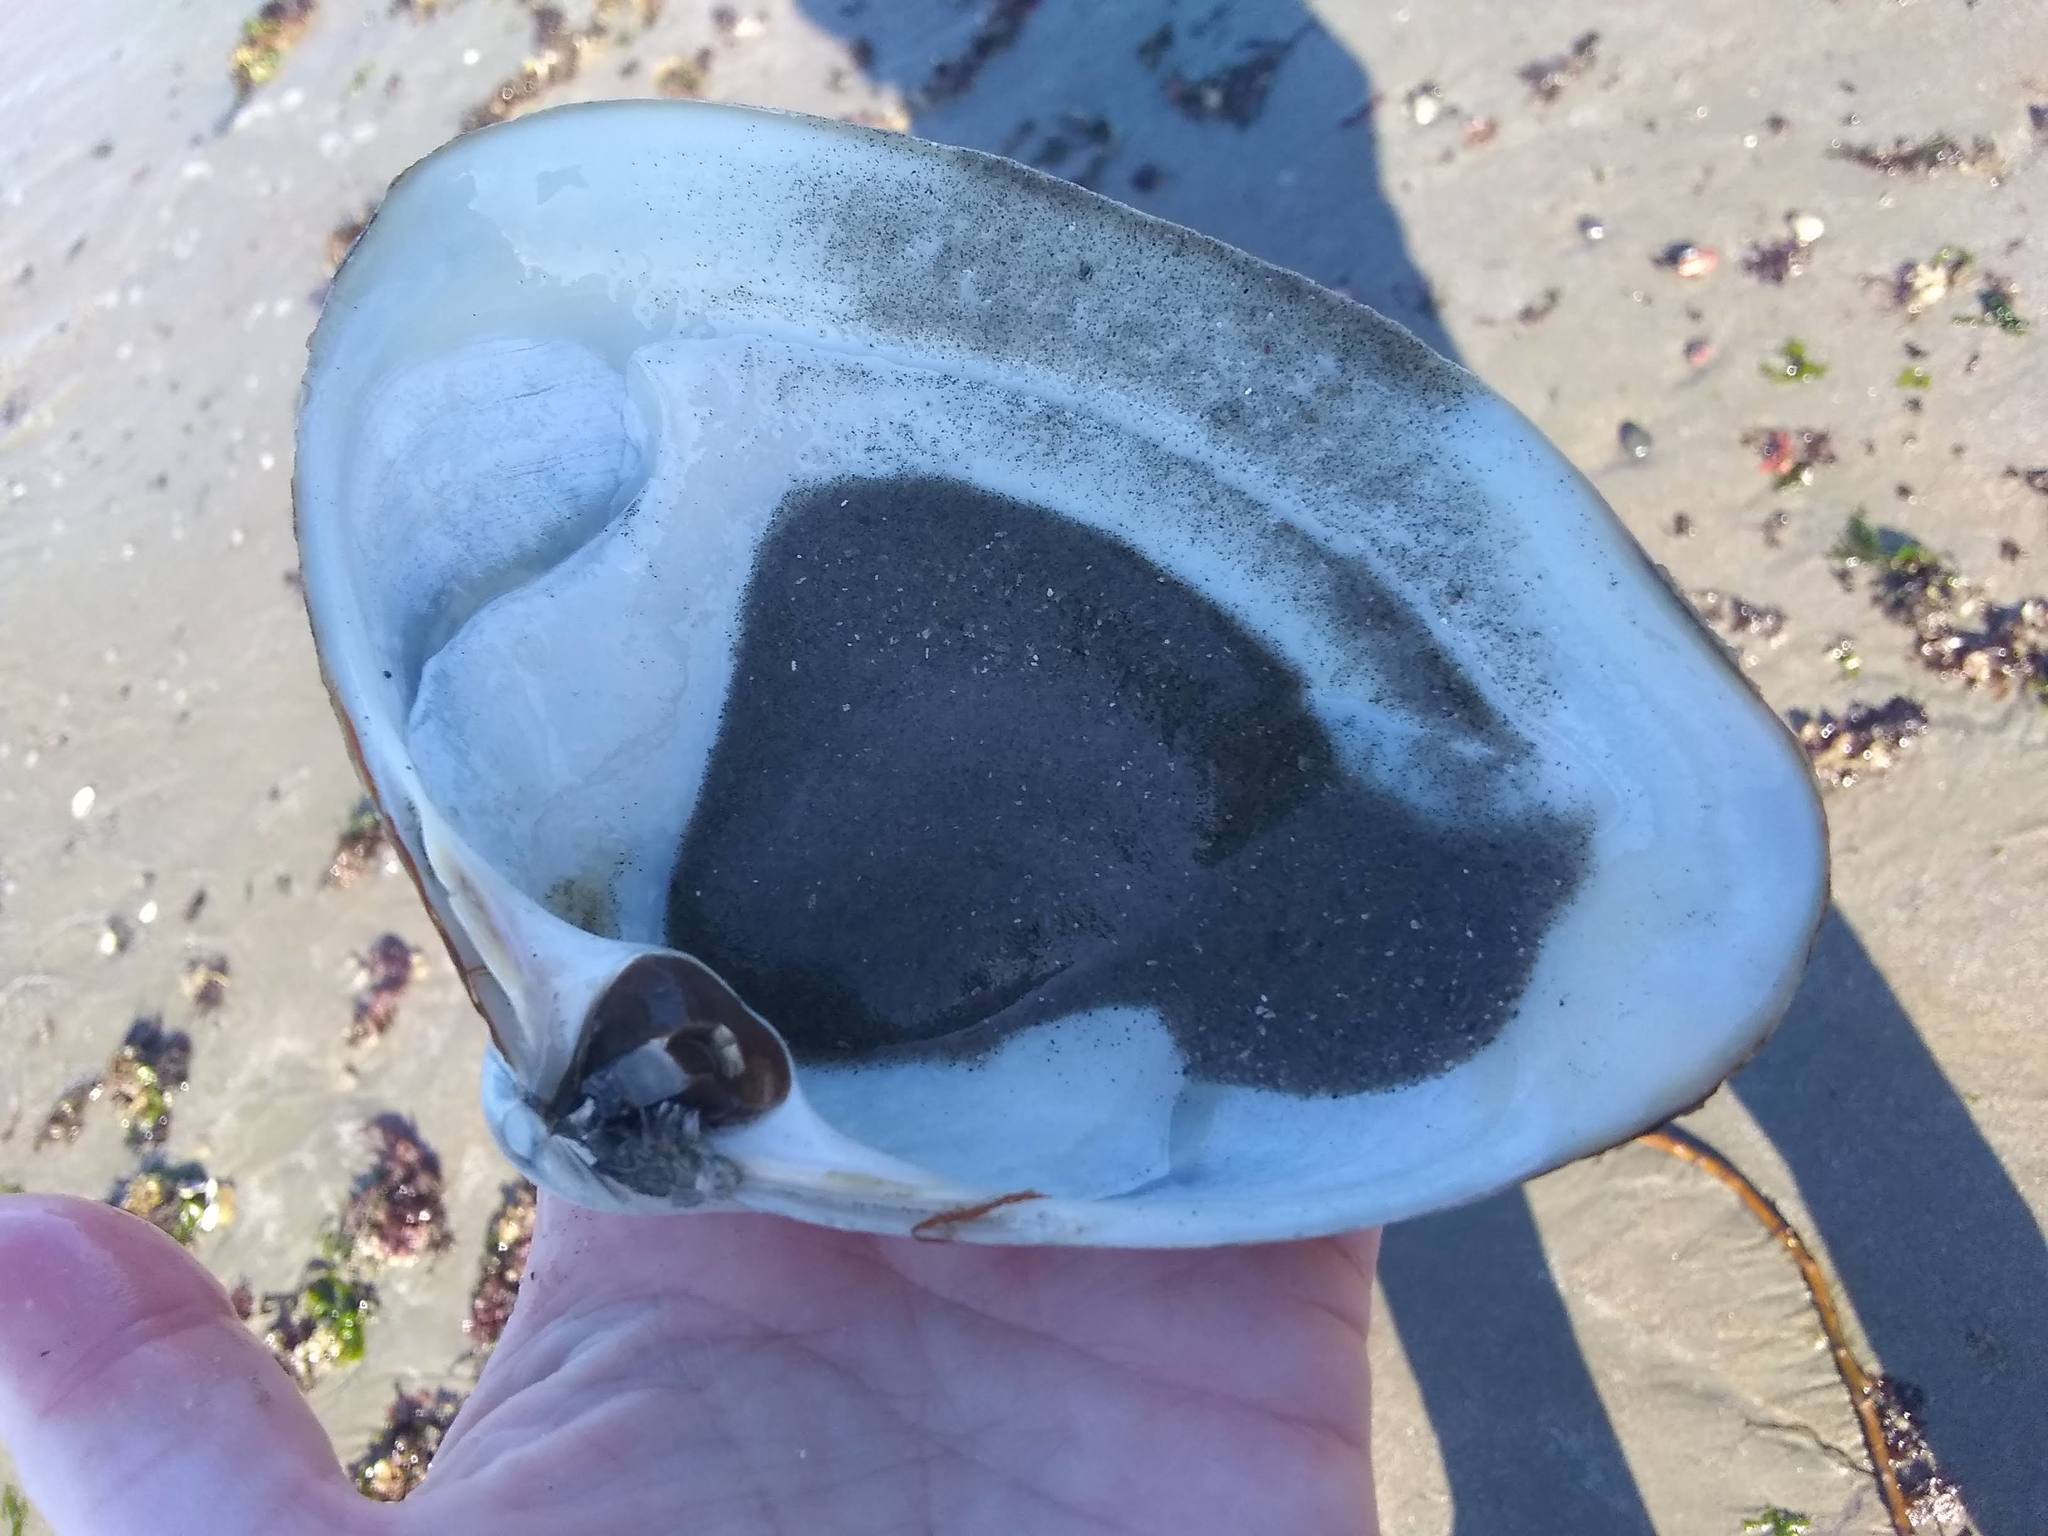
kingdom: Animalia
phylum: Mollusca
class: Bivalvia
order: Venerida
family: Mactridae
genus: Spisula
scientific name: Spisula solidissima
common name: Atlantic surf clam
